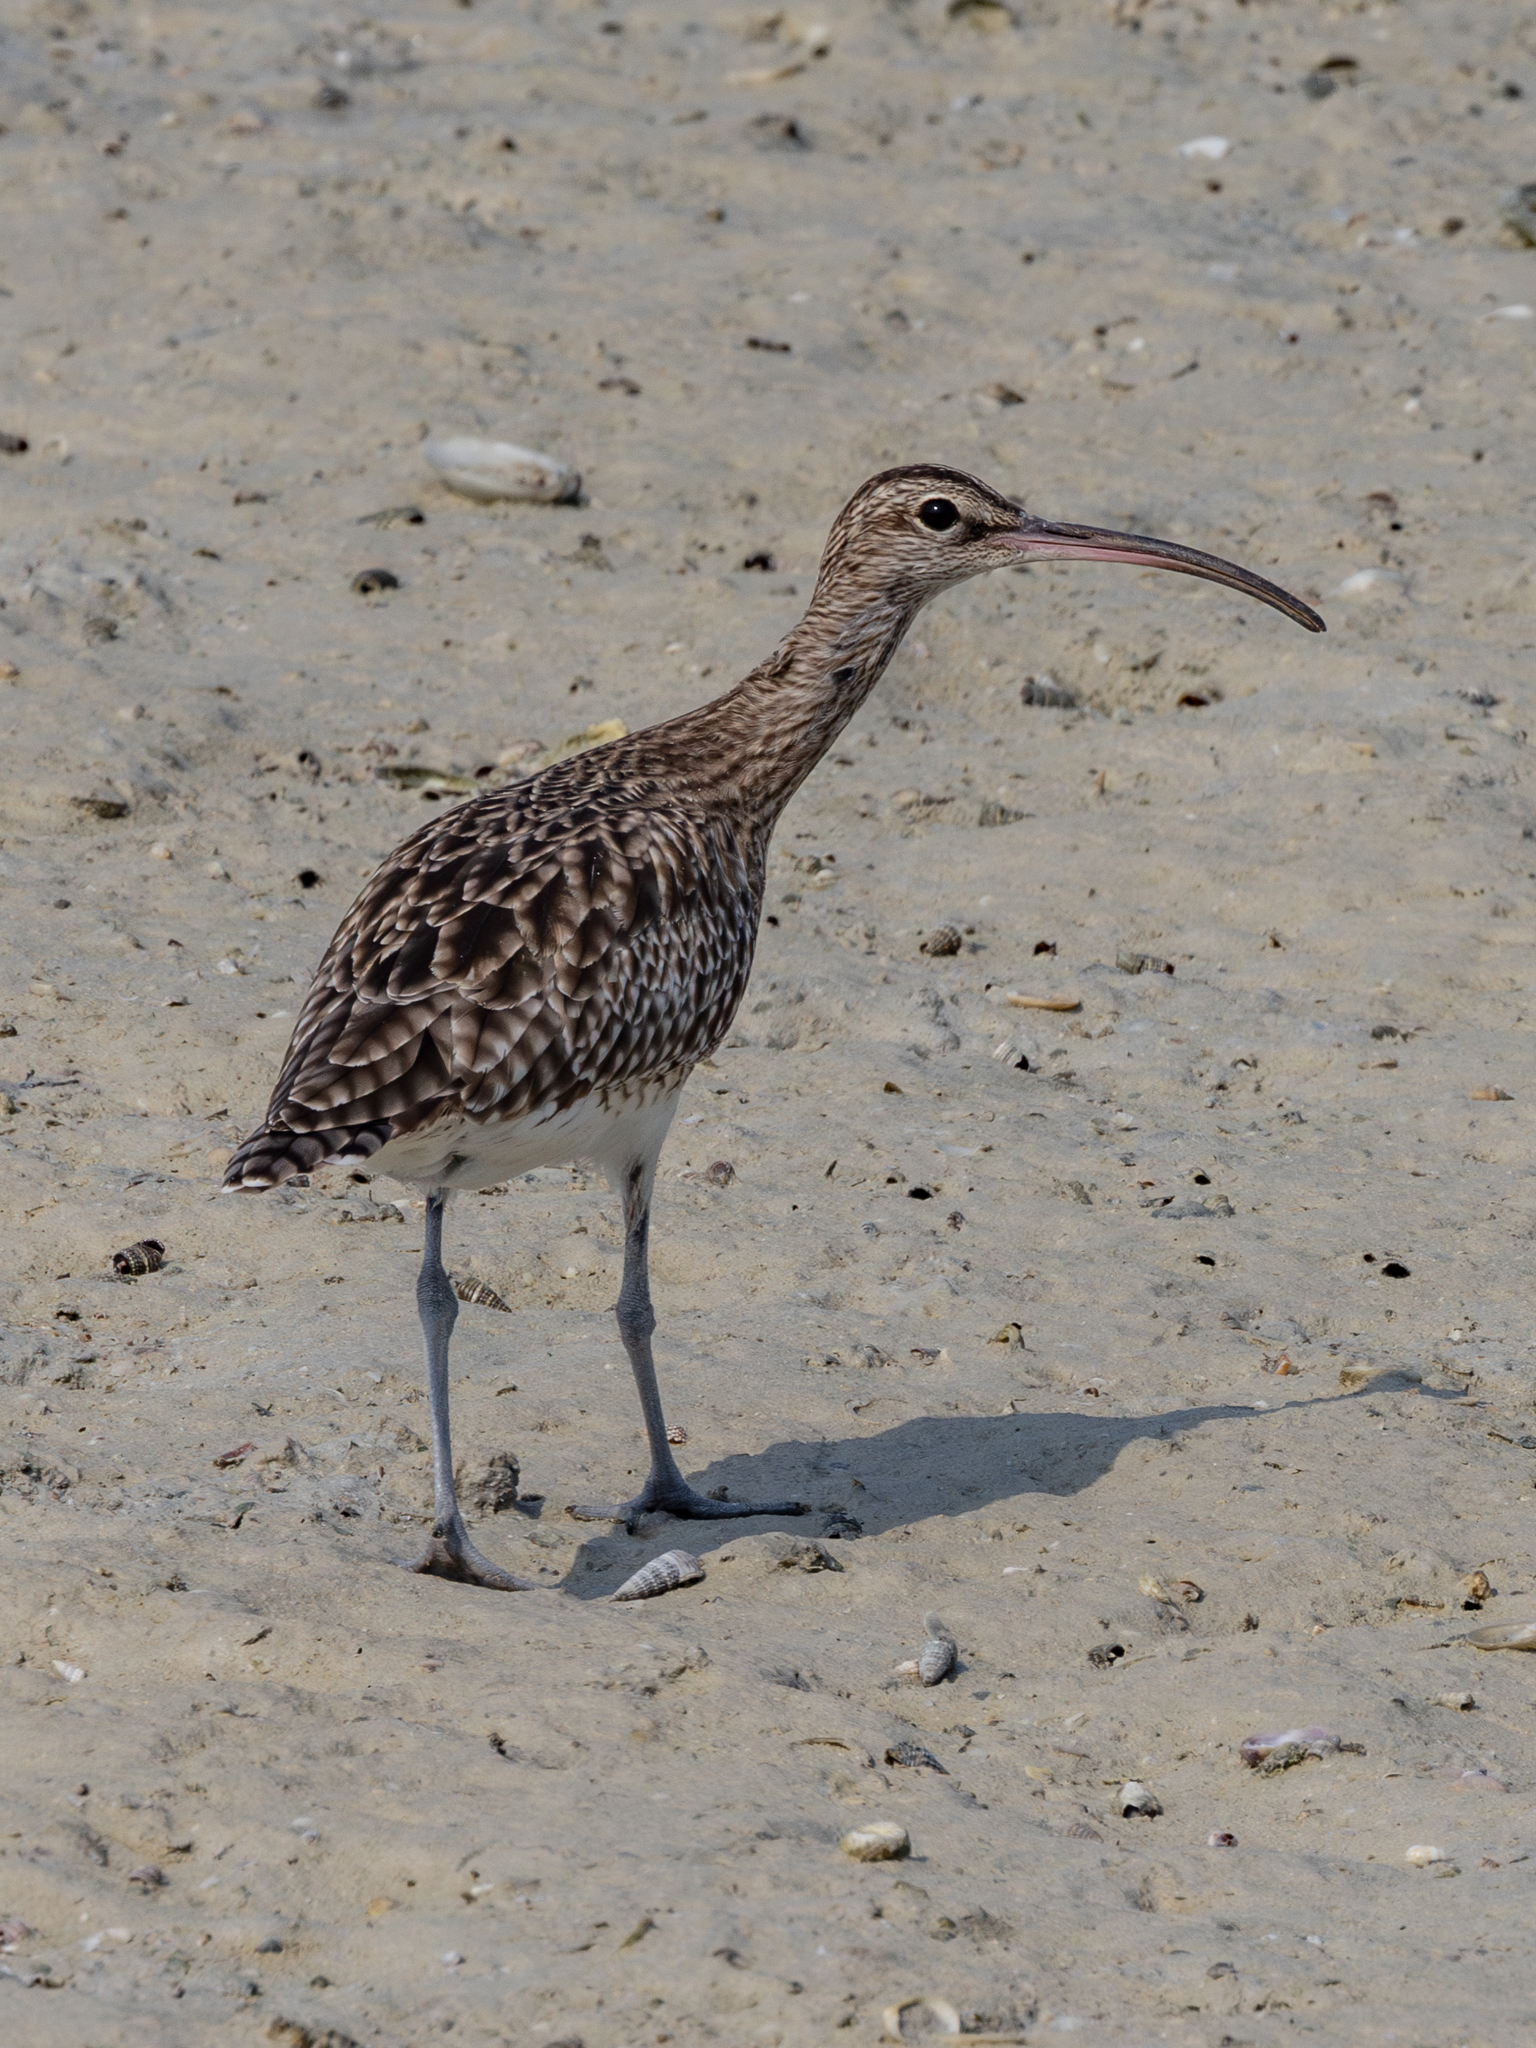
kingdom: Animalia
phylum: Chordata
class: Aves
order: Charadriiformes
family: Scolopacidae
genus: Numenius
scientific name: Numenius phaeopus
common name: Whimbrel
